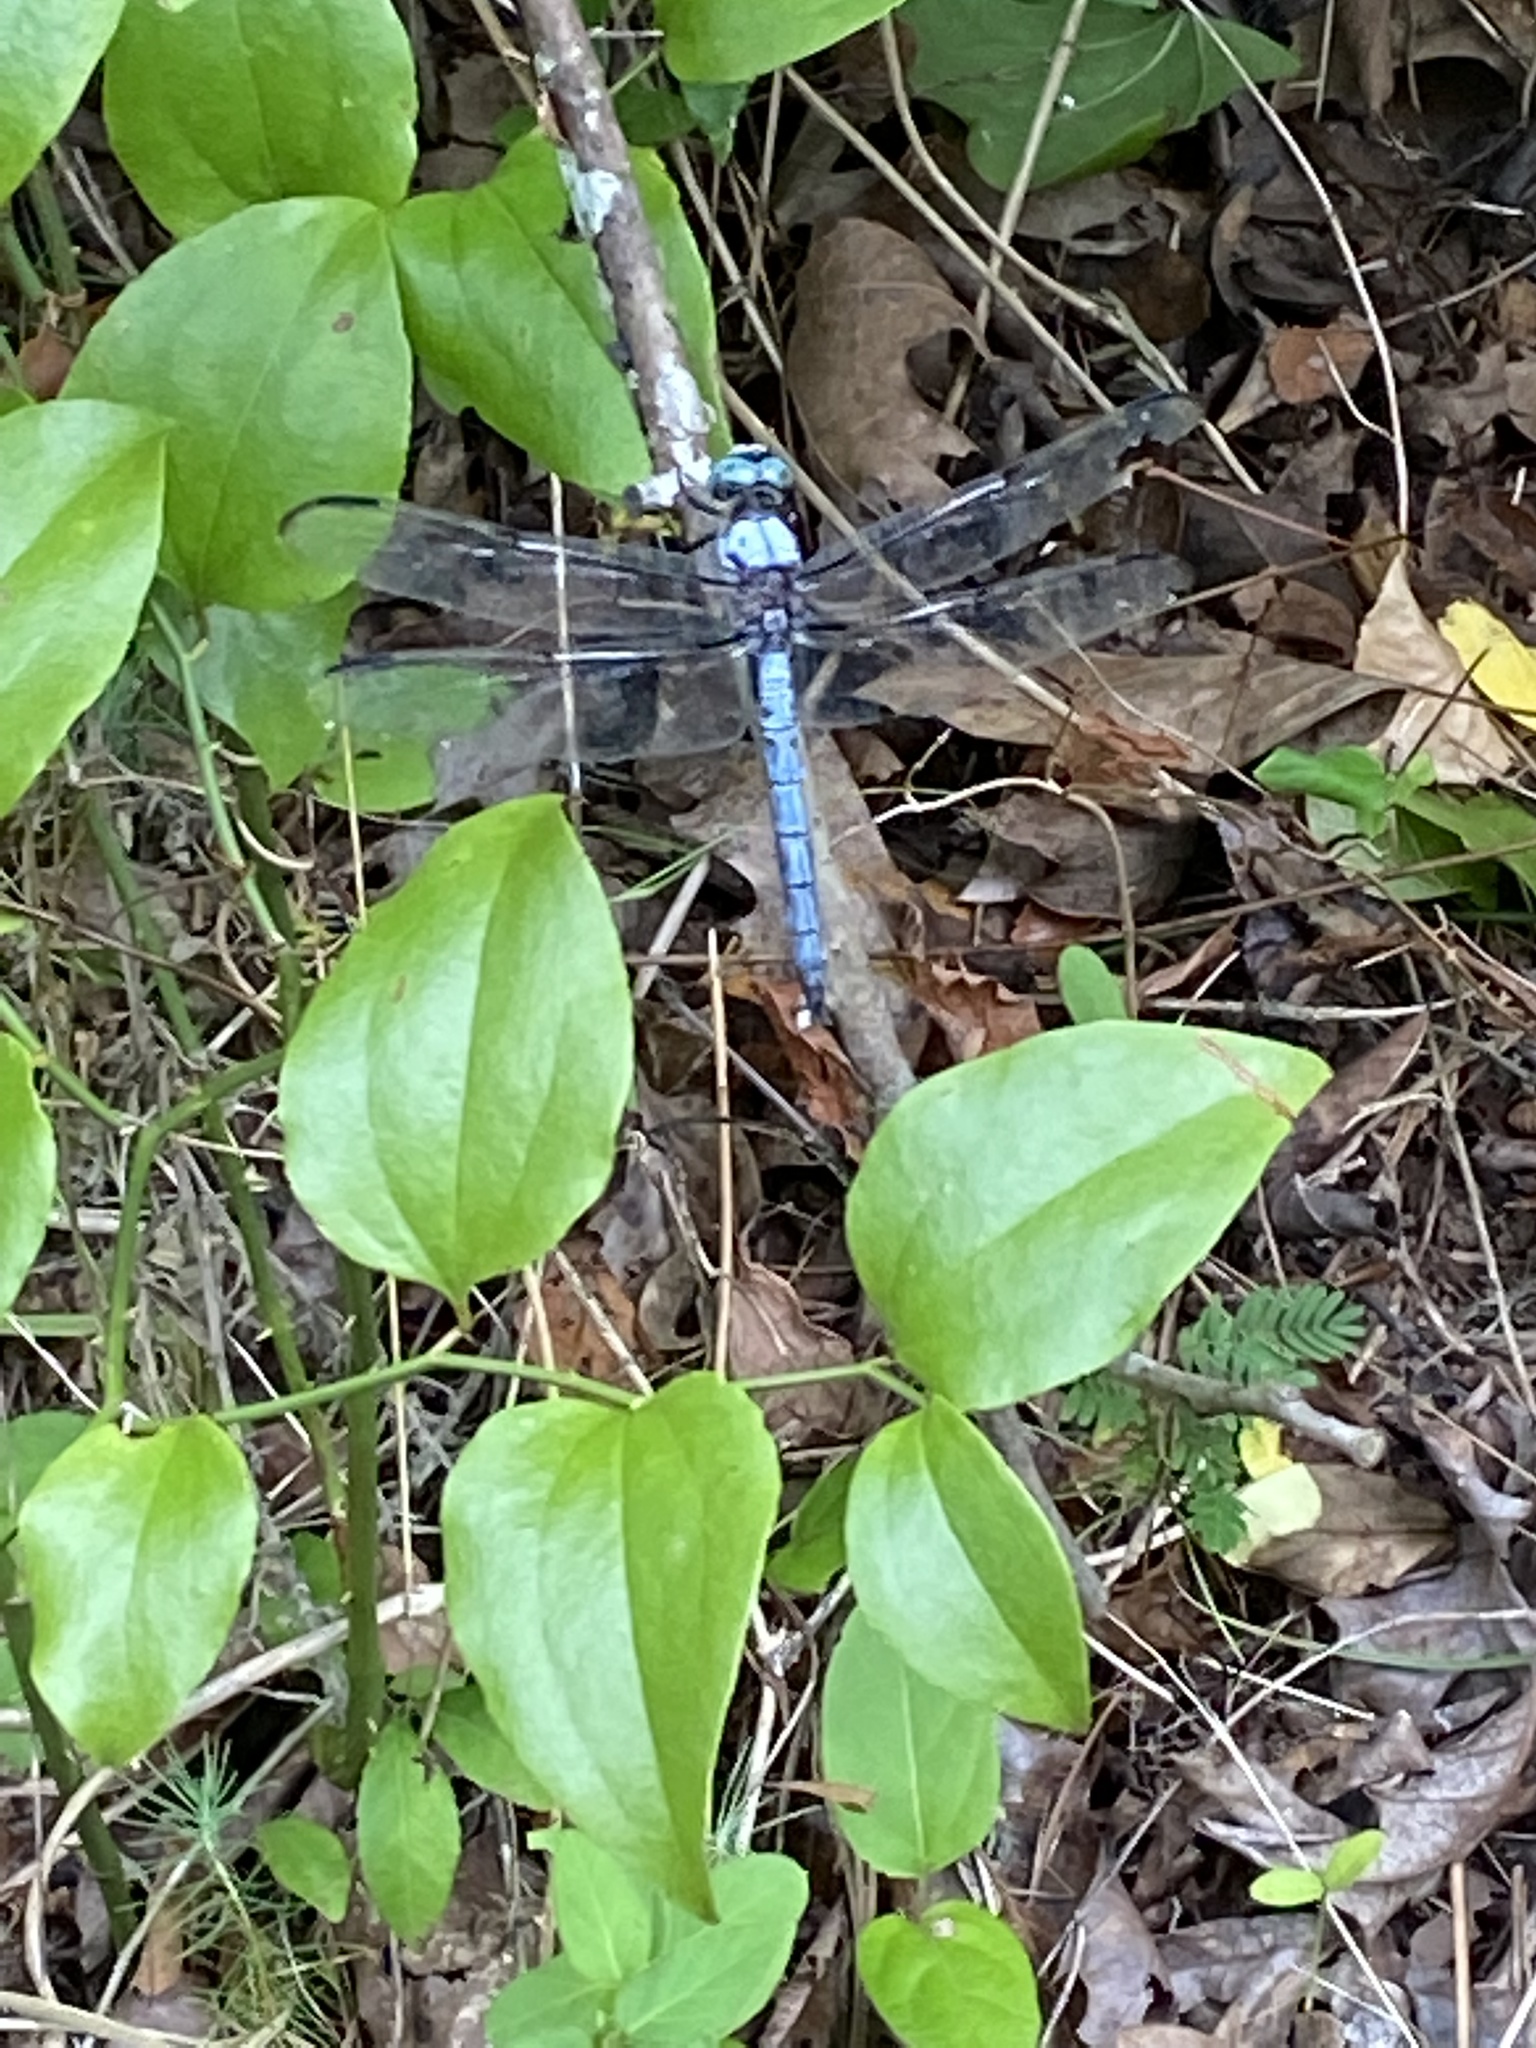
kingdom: Animalia
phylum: Arthropoda
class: Insecta
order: Odonata
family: Libellulidae
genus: Libellula
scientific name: Libellula vibrans
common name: Great blue skimmer
